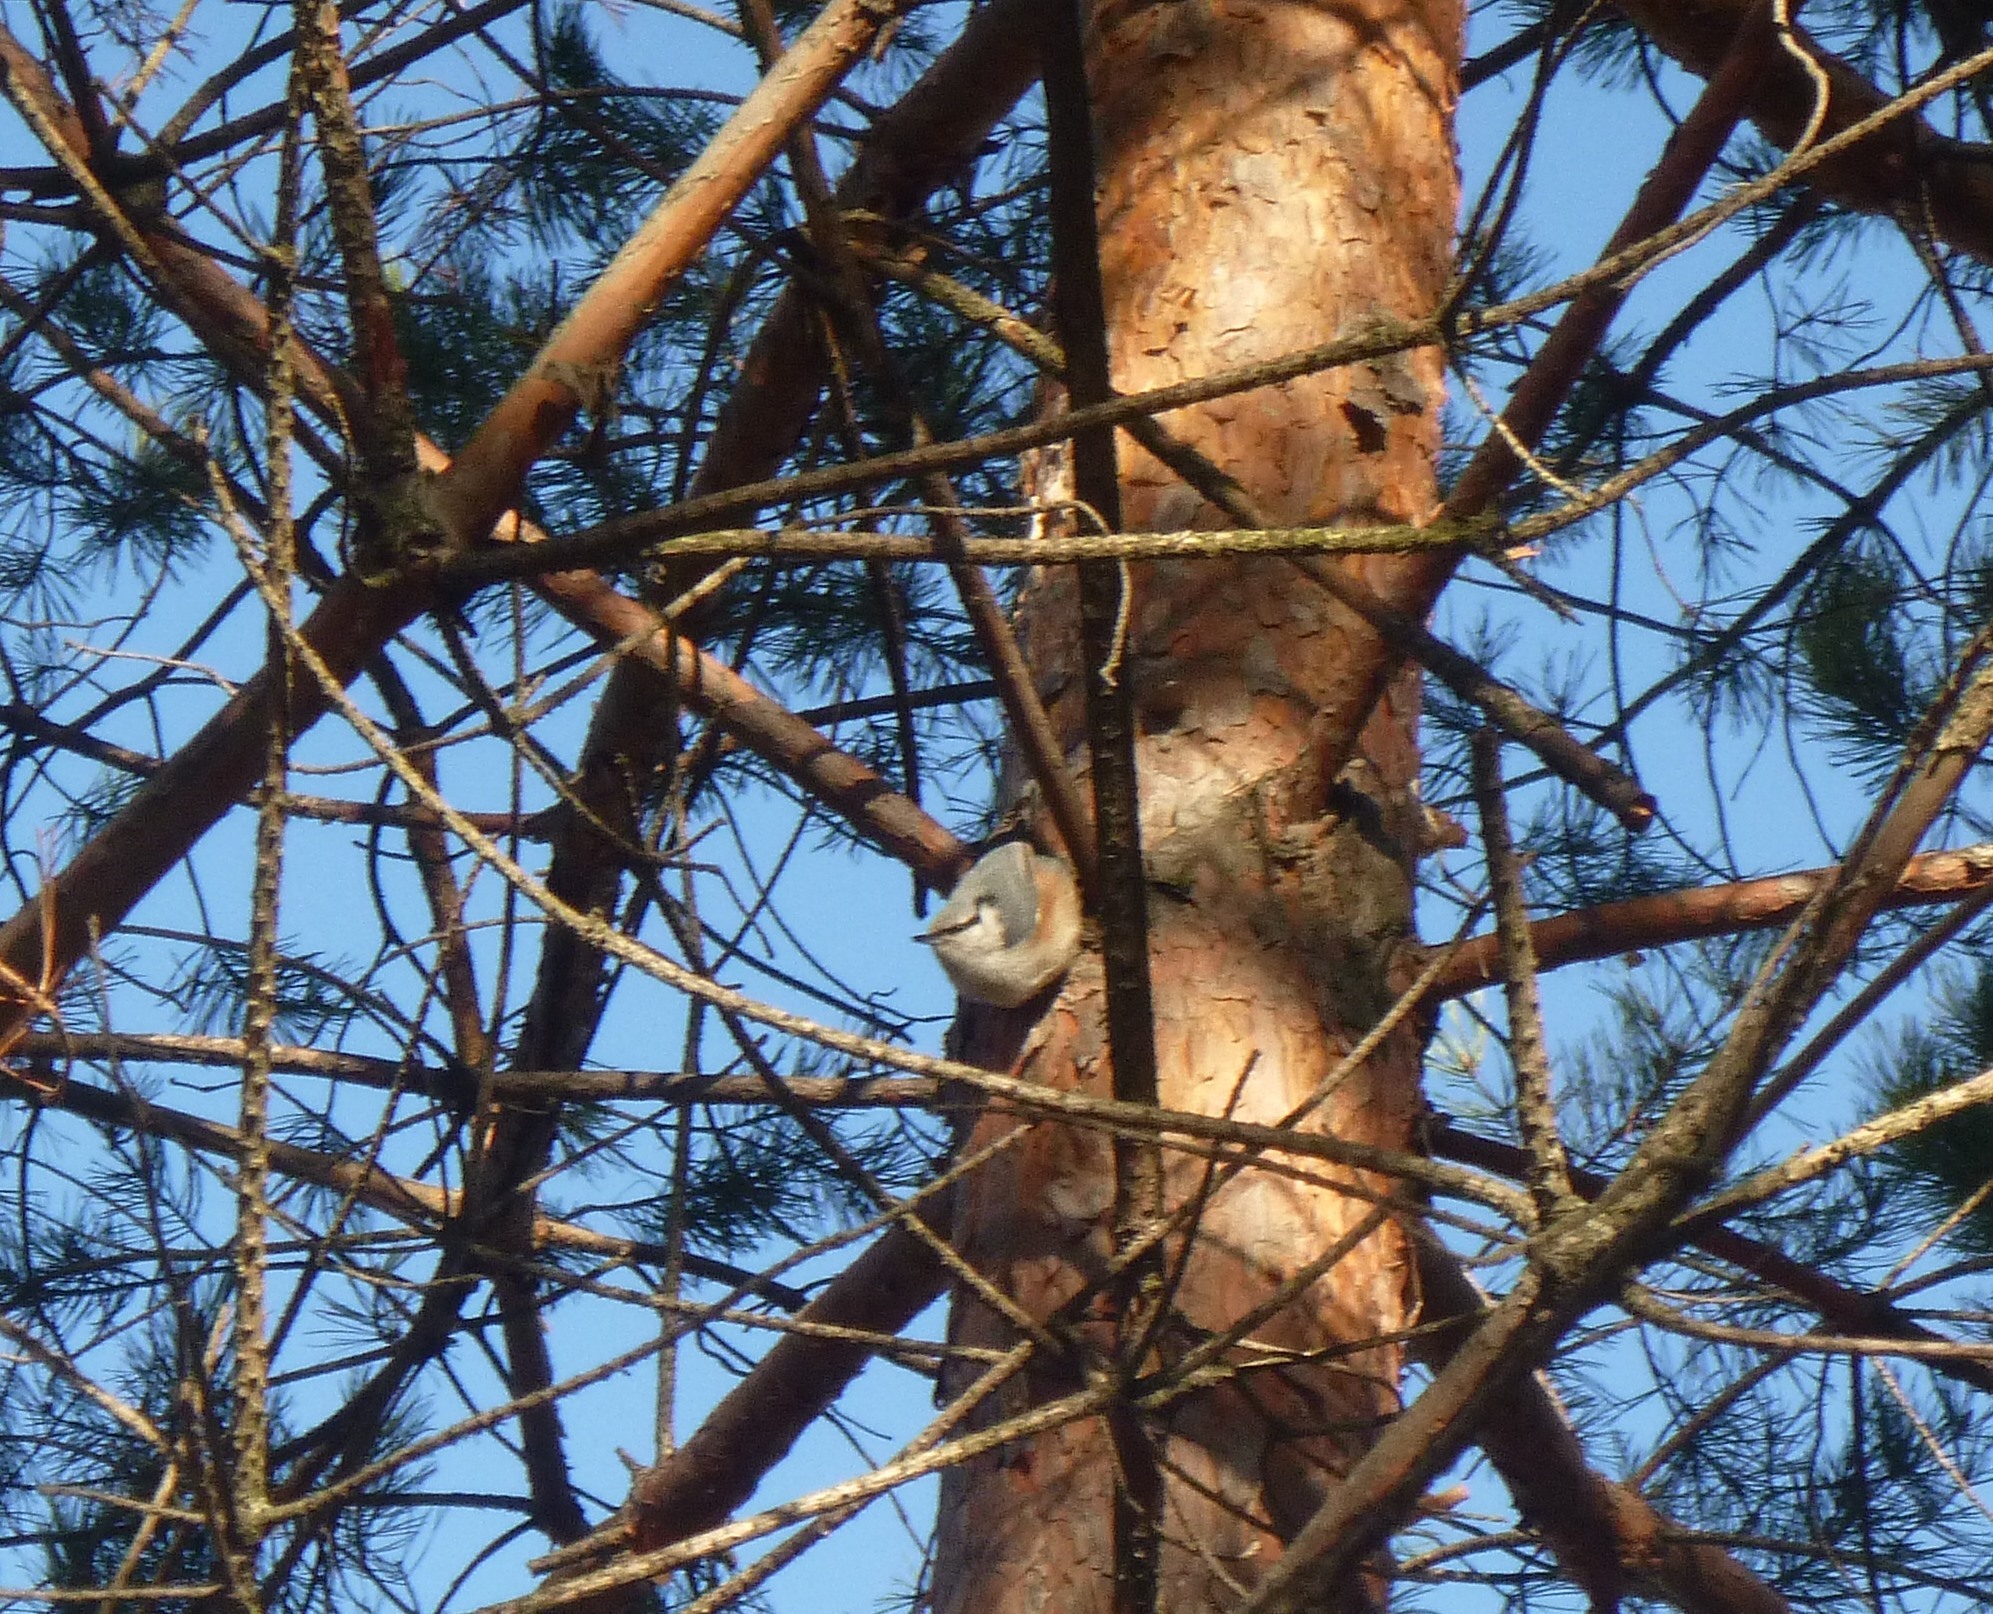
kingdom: Animalia
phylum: Chordata
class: Aves
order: Passeriformes
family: Sittidae
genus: Sitta
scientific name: Sitta europaea
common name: Eurasian nuthatch
